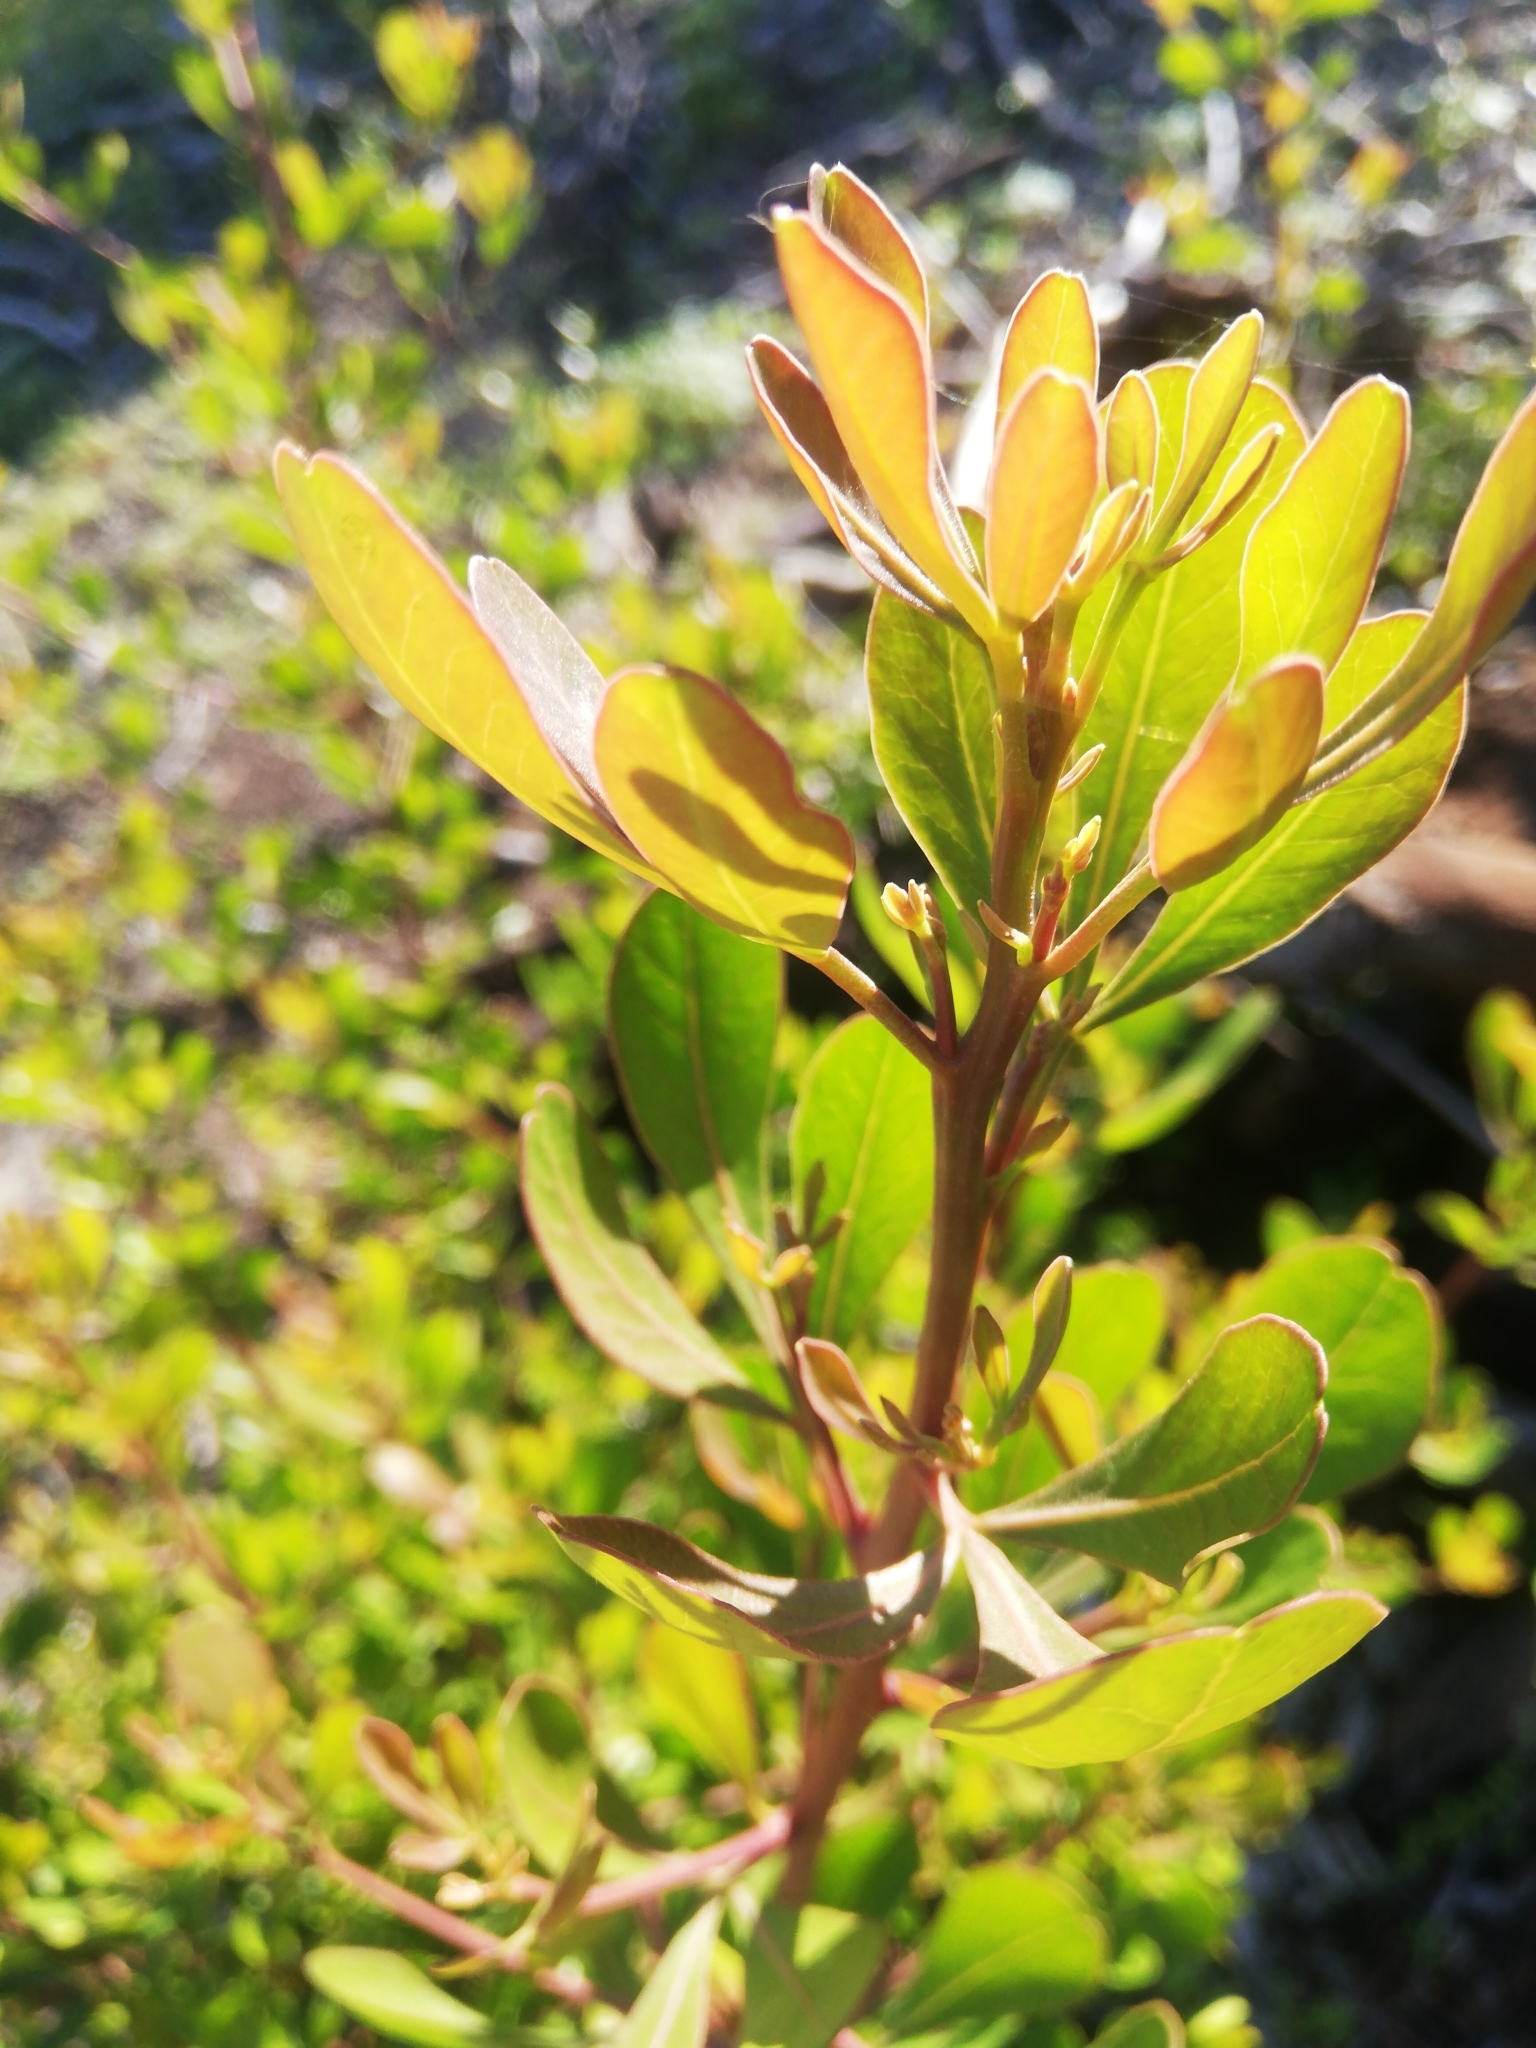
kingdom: Plantae
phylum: Tracheophyta
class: Magnoliopsida
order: Sapindales
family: Anacardiaceae
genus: Searsia
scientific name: Searsia lucida
